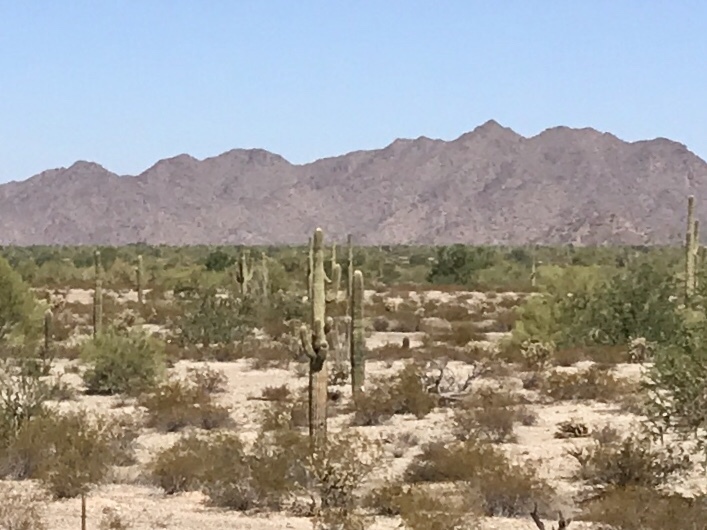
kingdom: Plantae
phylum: Tracheophyta
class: Magnoliopsida
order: Caryophyllales
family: Cactaceae
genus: Carnegiea
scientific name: Carnegiea gigantea
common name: Saguaro
